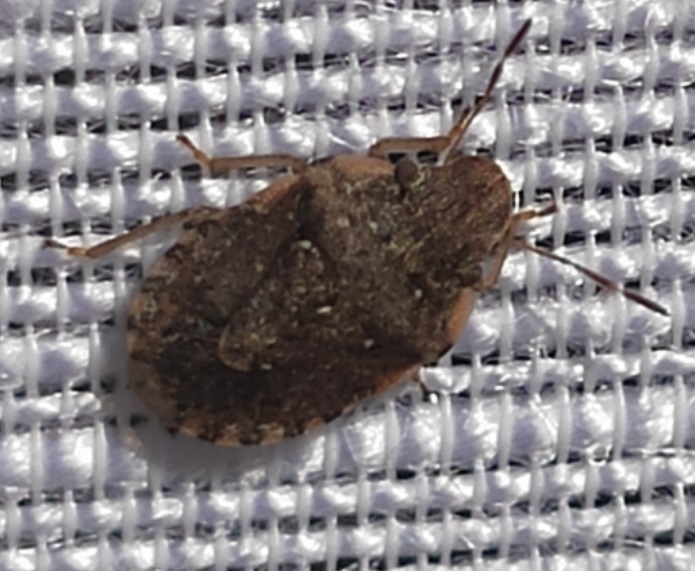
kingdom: Animalia
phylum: Arthropoda
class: Insecta
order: Hemiptera
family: Pentatomidae
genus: Sciocoris
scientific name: Sciocoris sideritidis
